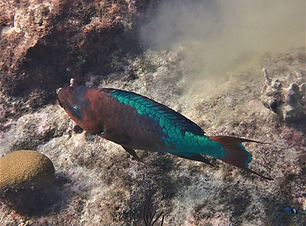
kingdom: Animalia
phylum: Chordata
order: Perciformes
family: Scaridae
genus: Scarus
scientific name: Scarus guacamaia
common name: Rainbow parrotfish
